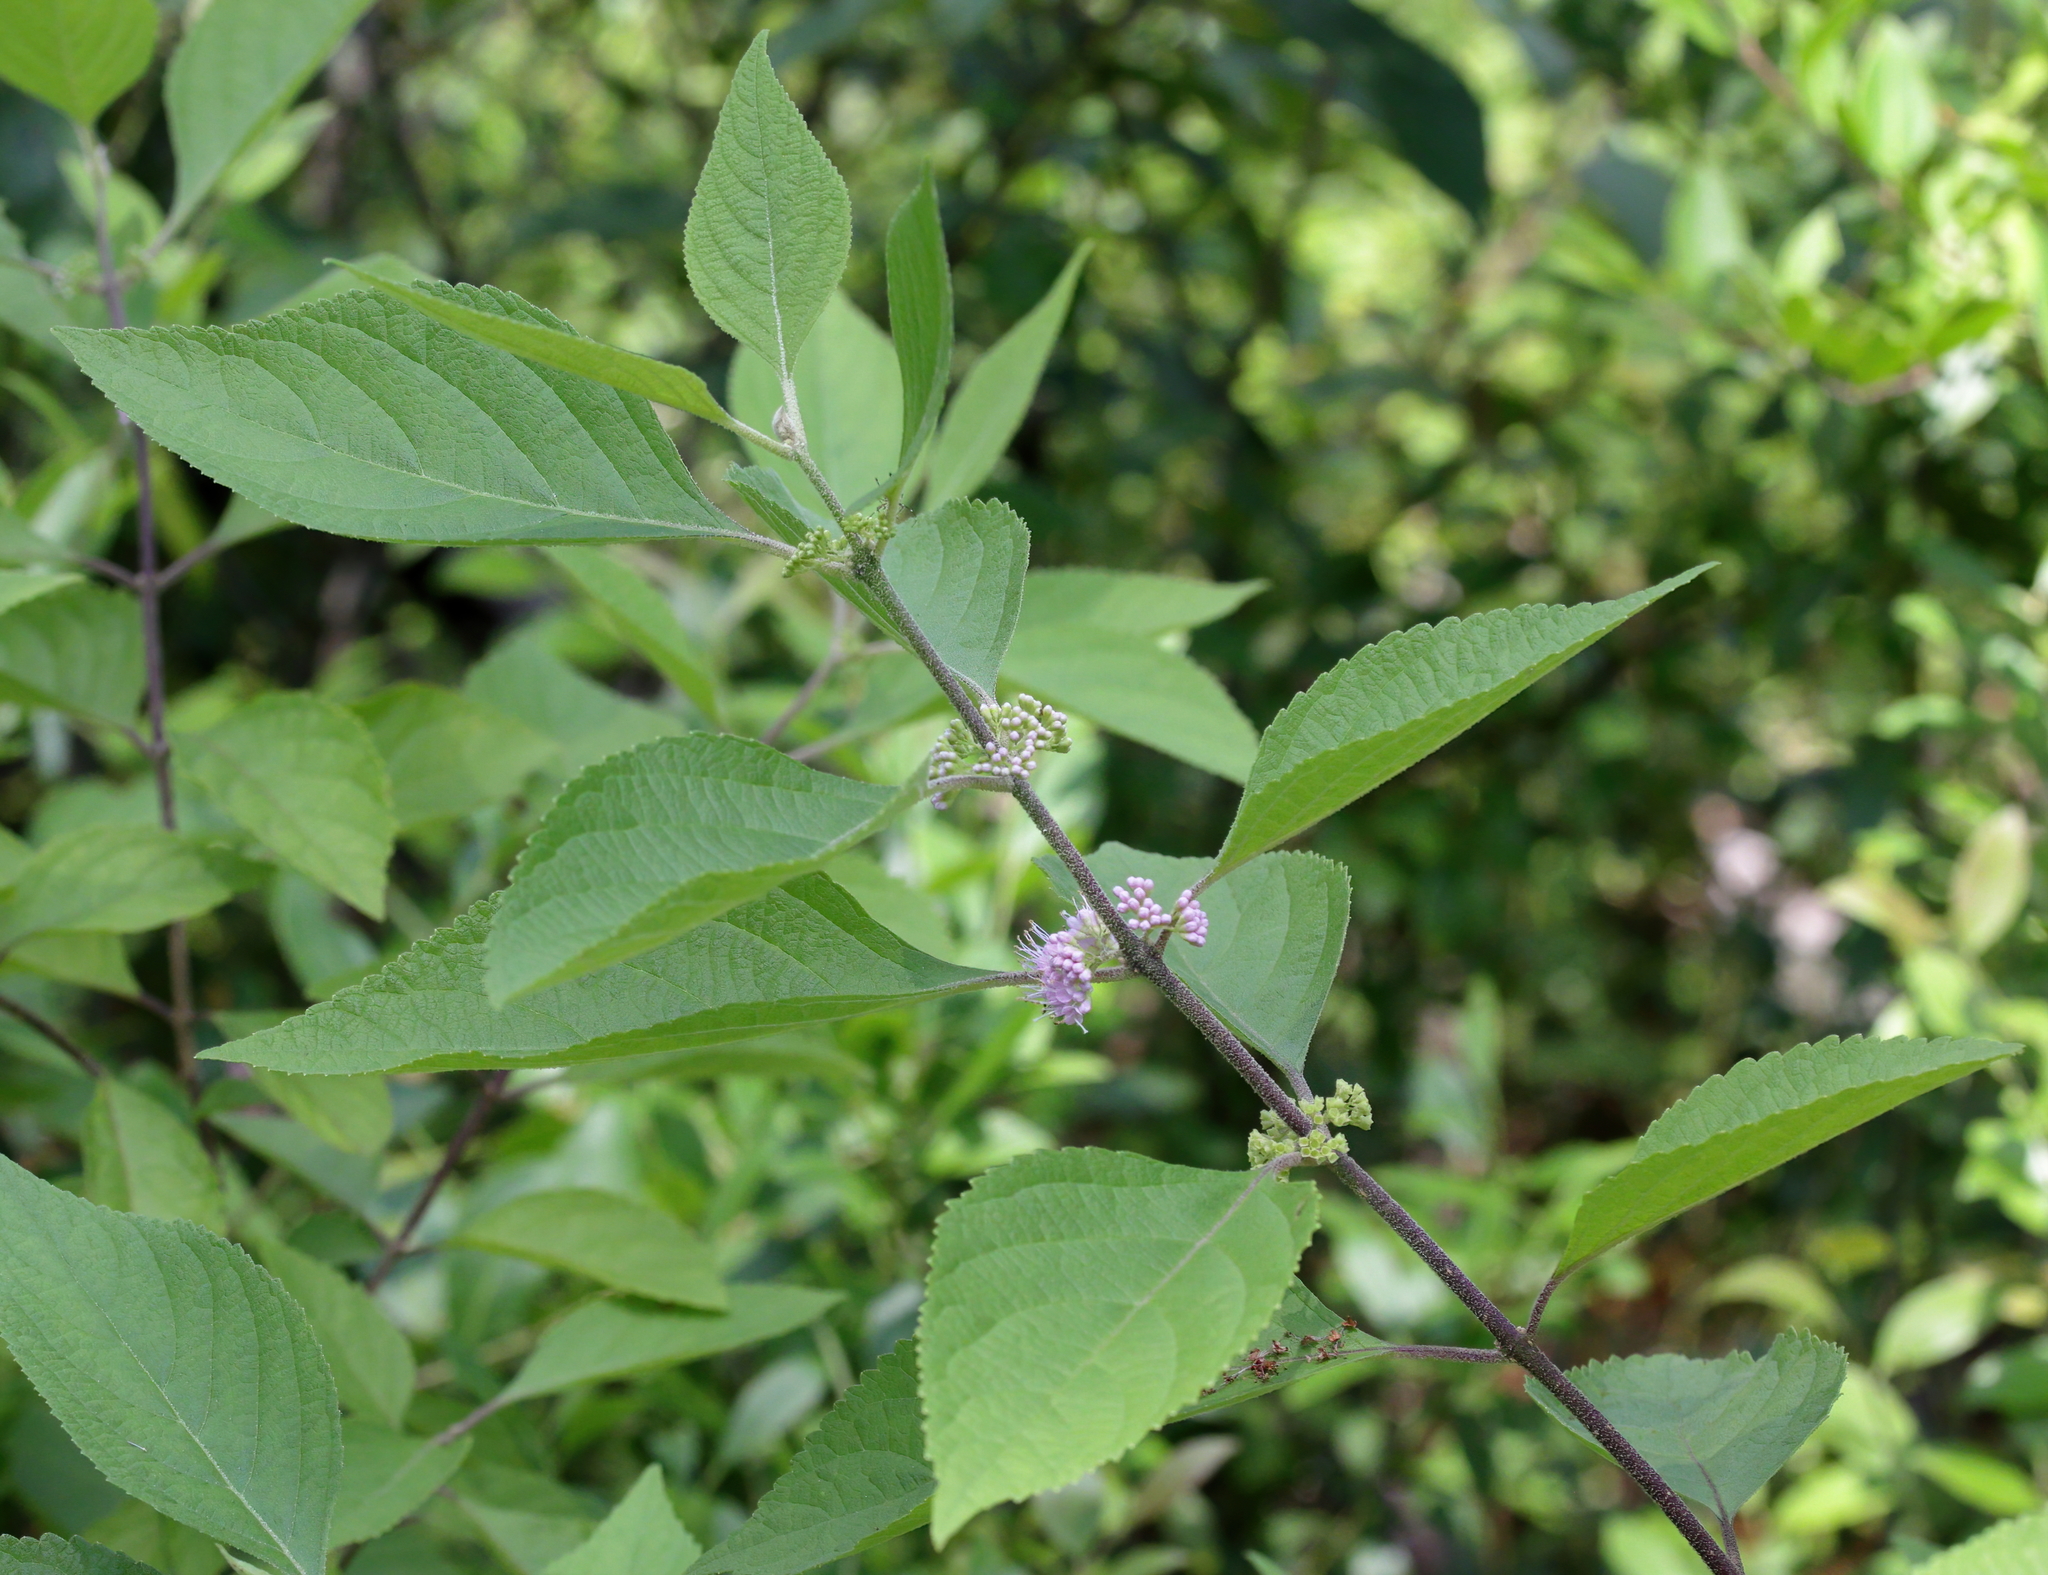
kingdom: Plantae
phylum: Tracheophyta
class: Magnoliopsida
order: Lamiales
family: Lamiaceae
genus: Callicarpa
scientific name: Callicarpa americana
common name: American beautyberry
